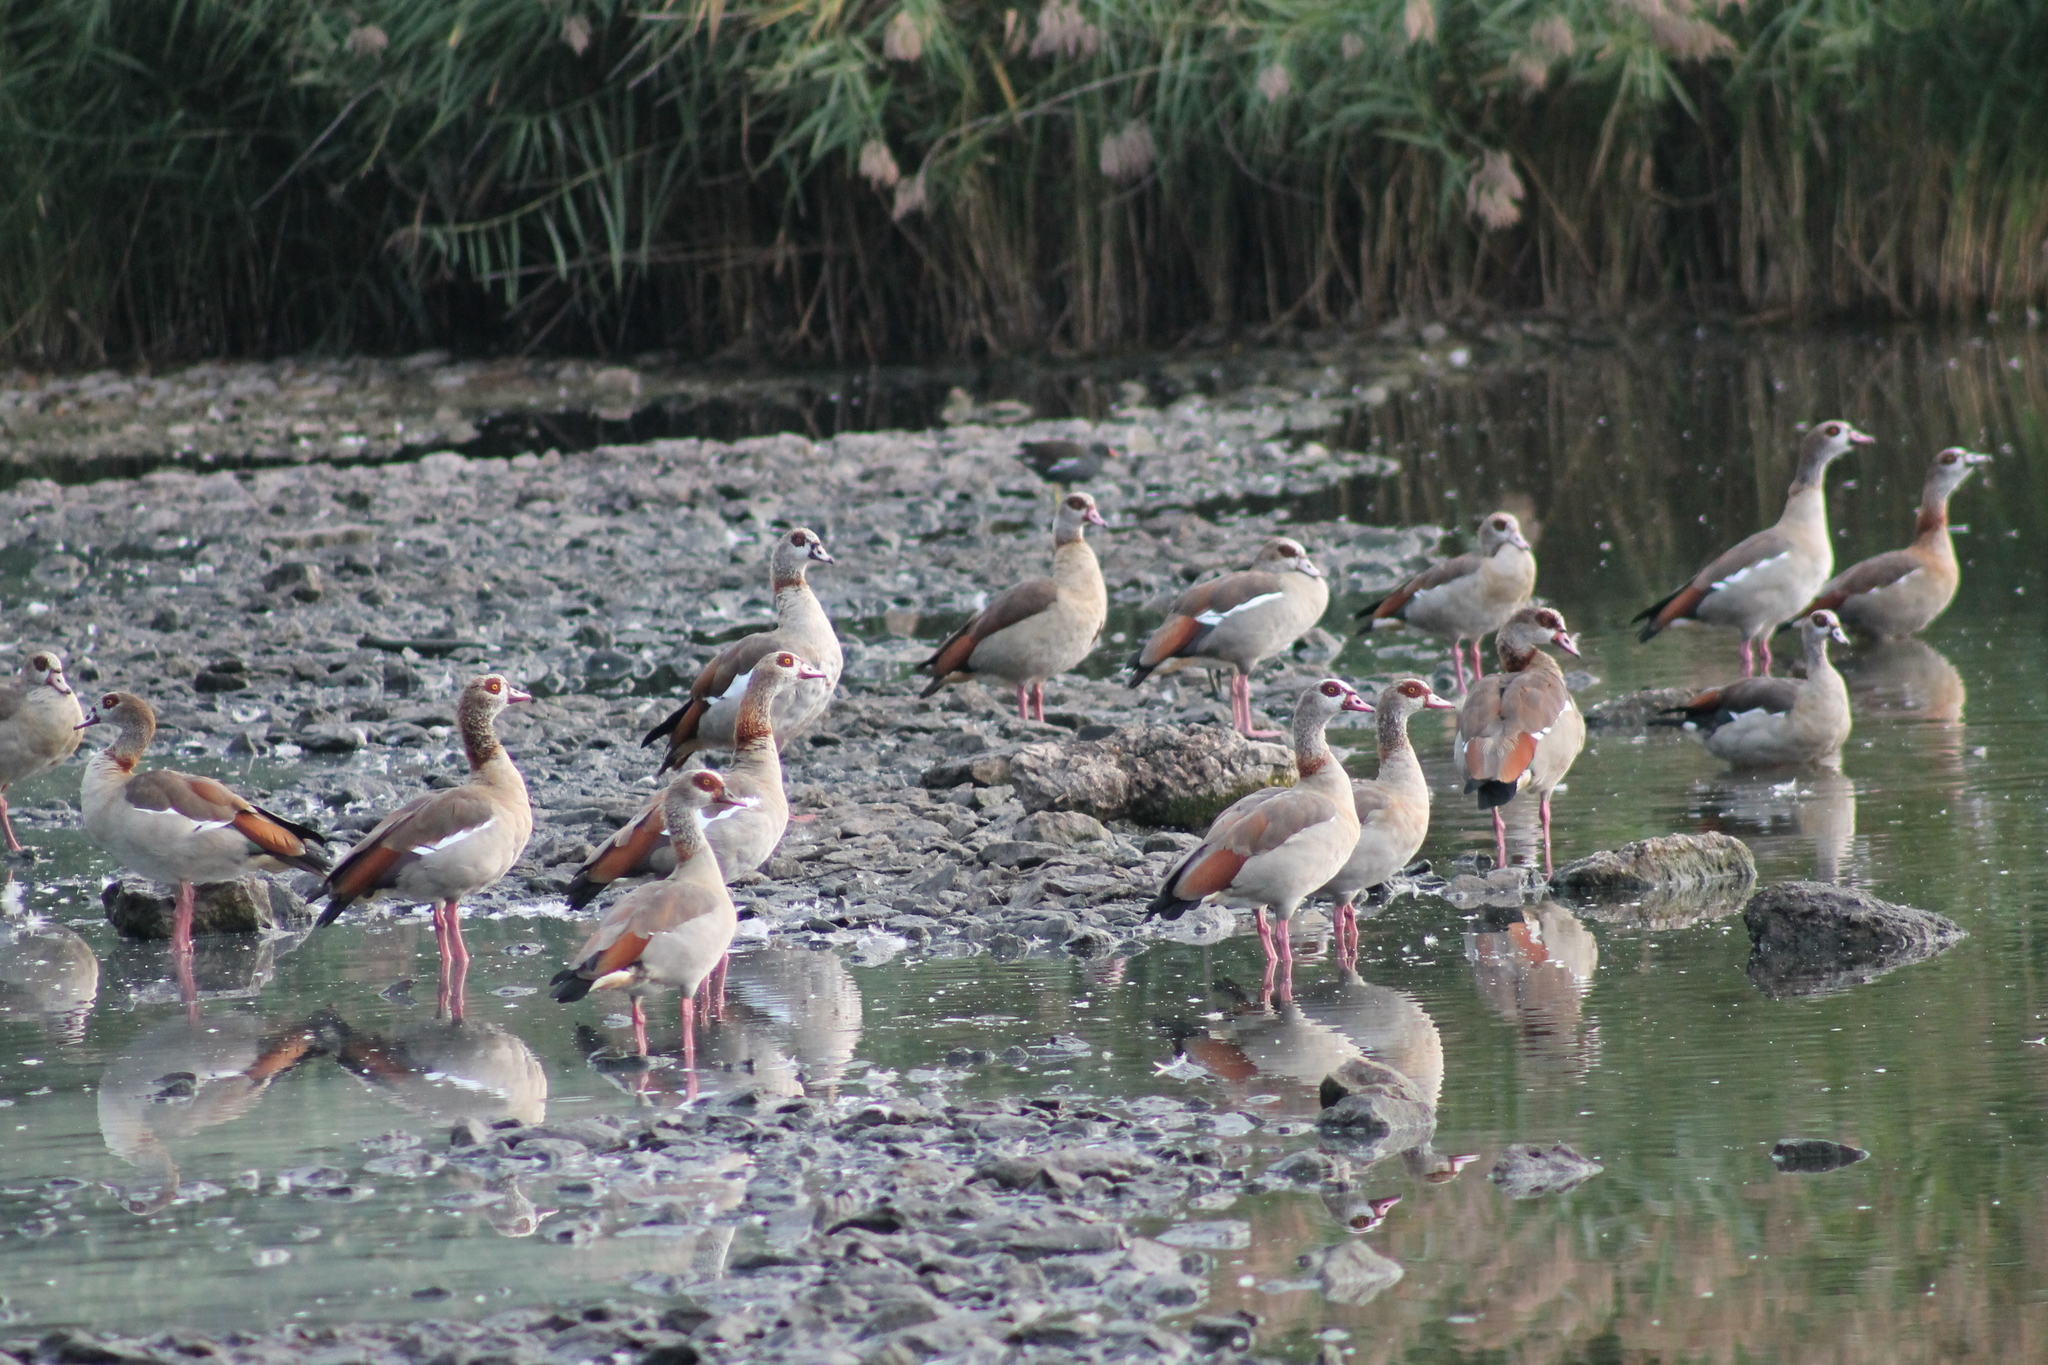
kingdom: Animalia
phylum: Chordata
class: Aves
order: Anseriformes
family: Anatidae
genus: Alopochen
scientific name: Alopochen aegyptiaca
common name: Egyptian goose
